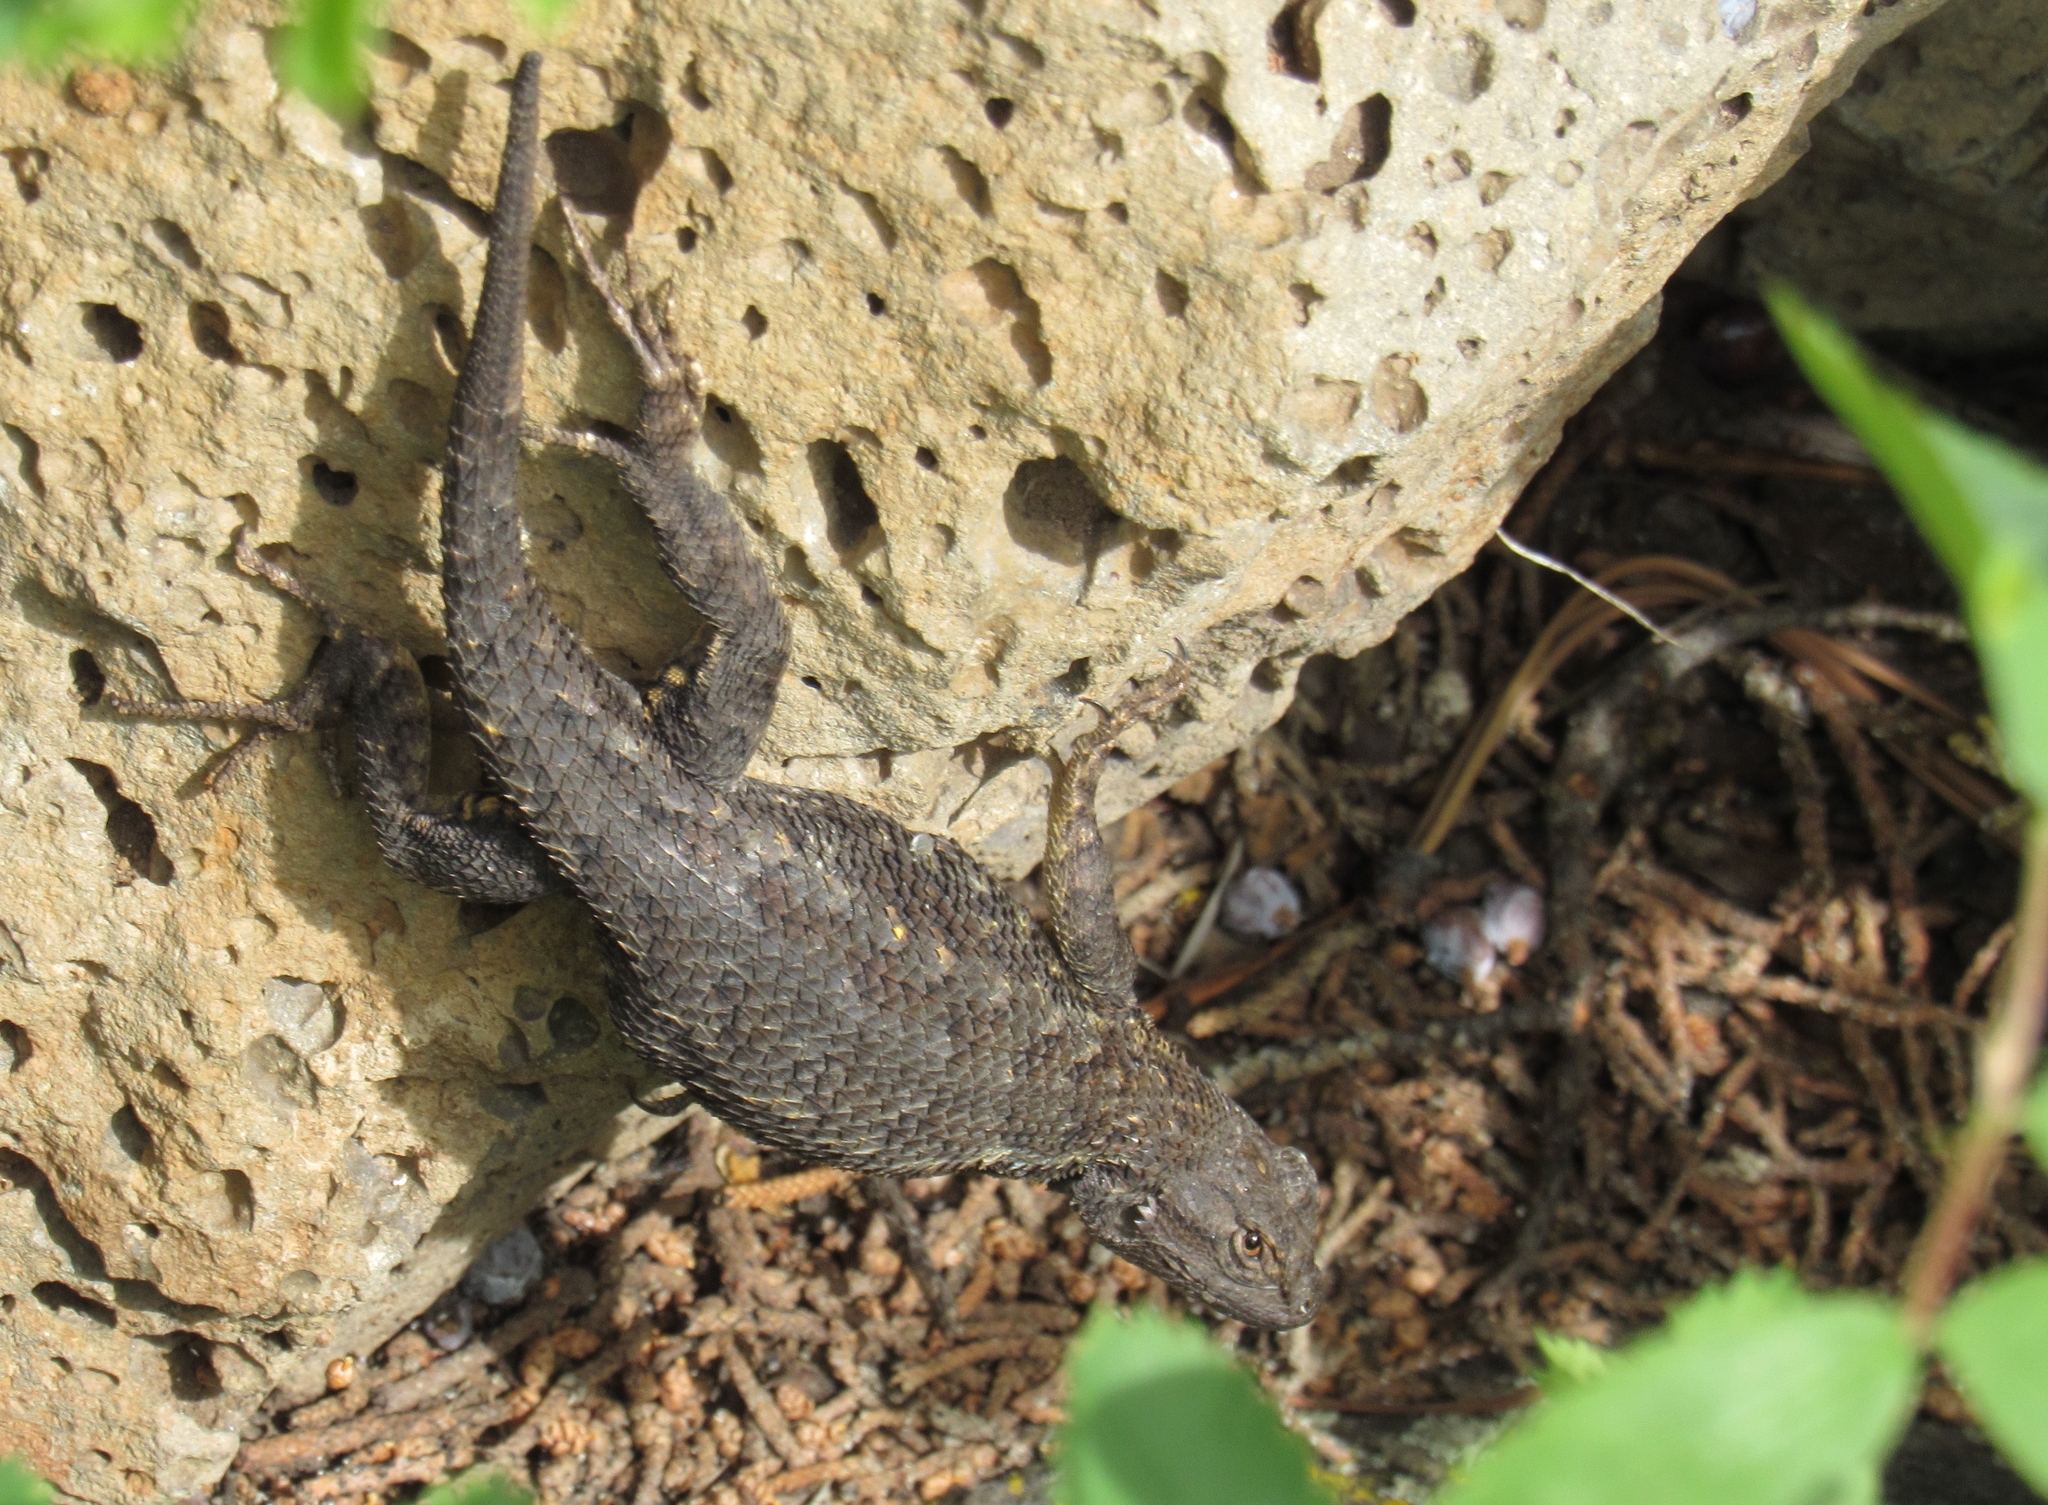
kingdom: Animalia
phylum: Chordata
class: Squamata
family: Phrynosomatidae
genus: Sceloporus
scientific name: Sceloporus occidentalis
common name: Western fence lizard
